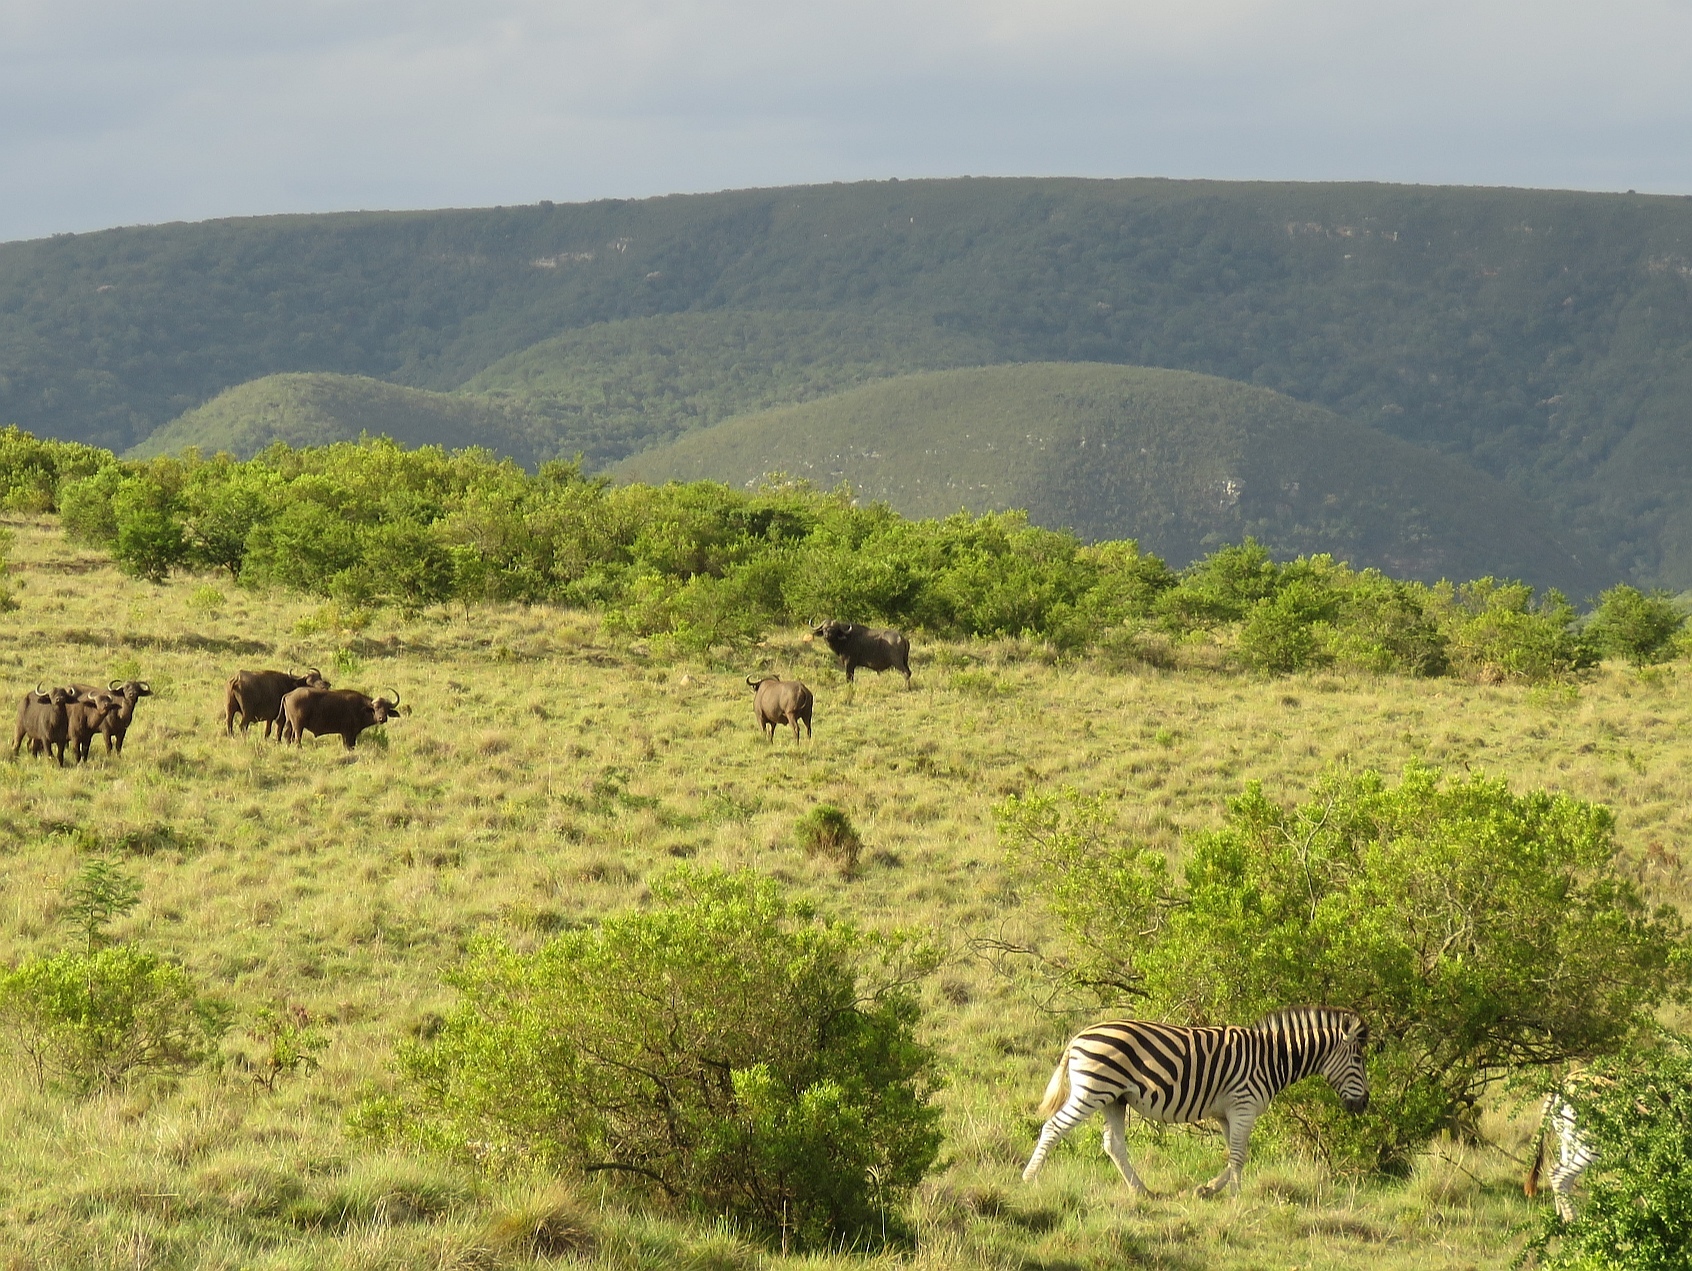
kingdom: Animalia
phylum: Chordata
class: Mammalia
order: Perissodactyla
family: Equidae
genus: Equus
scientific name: Equus quagga
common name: Plains zebra
